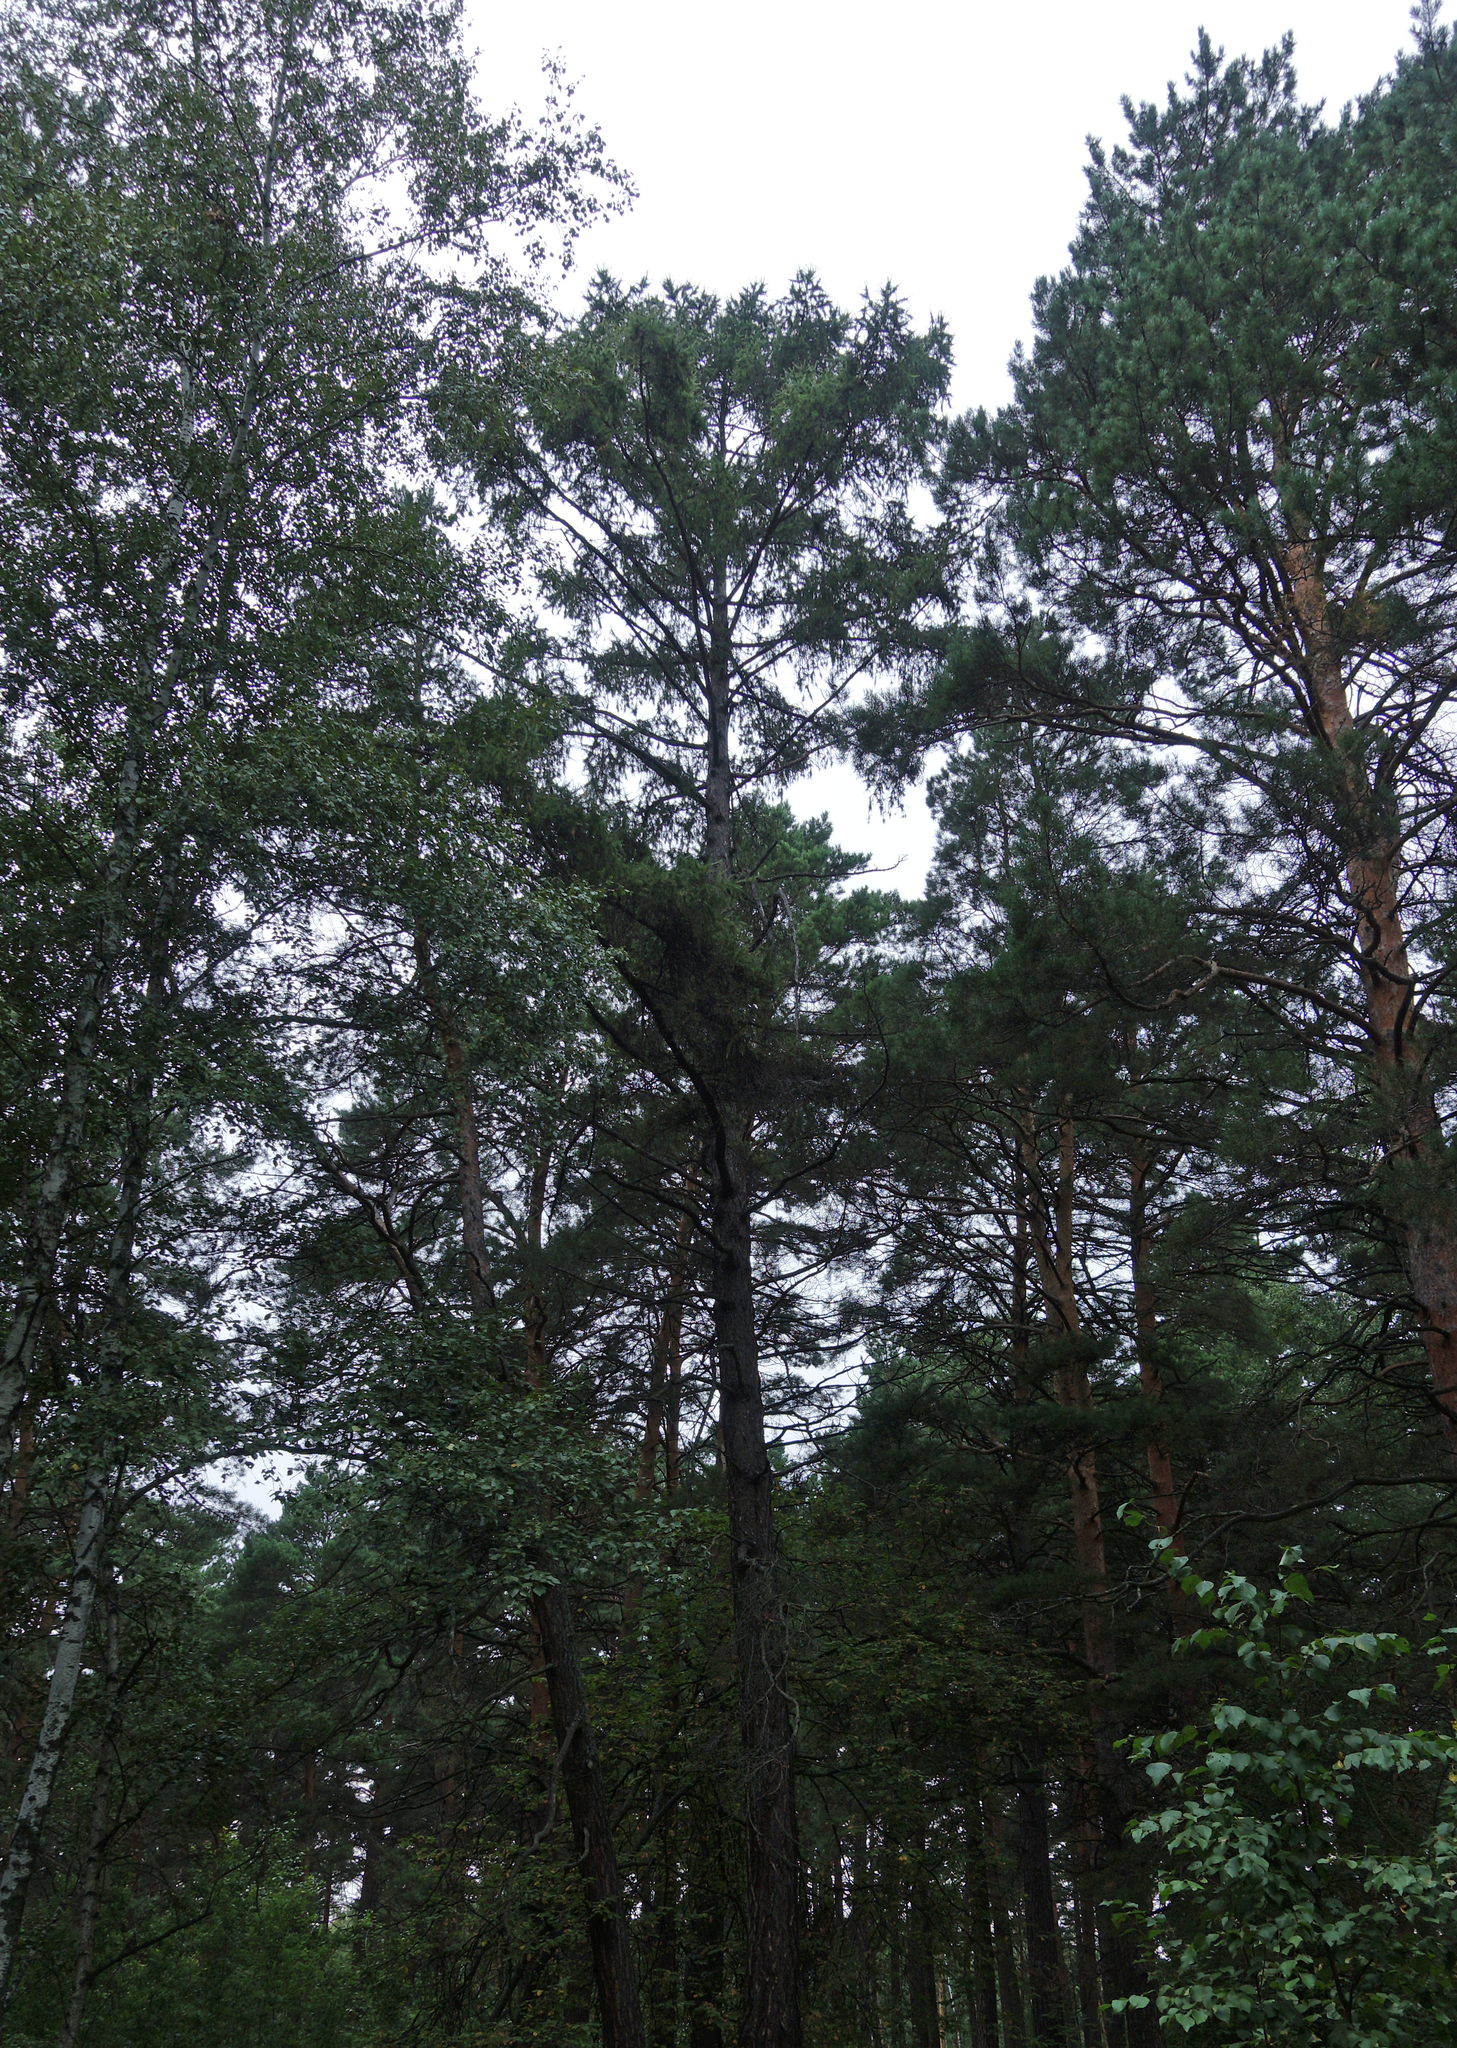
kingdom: Plantae
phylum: Tracheophyta
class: Pinopsida
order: Pinales
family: Pinaceae
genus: Larix
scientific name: Larix sibirica
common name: Siberian larch
